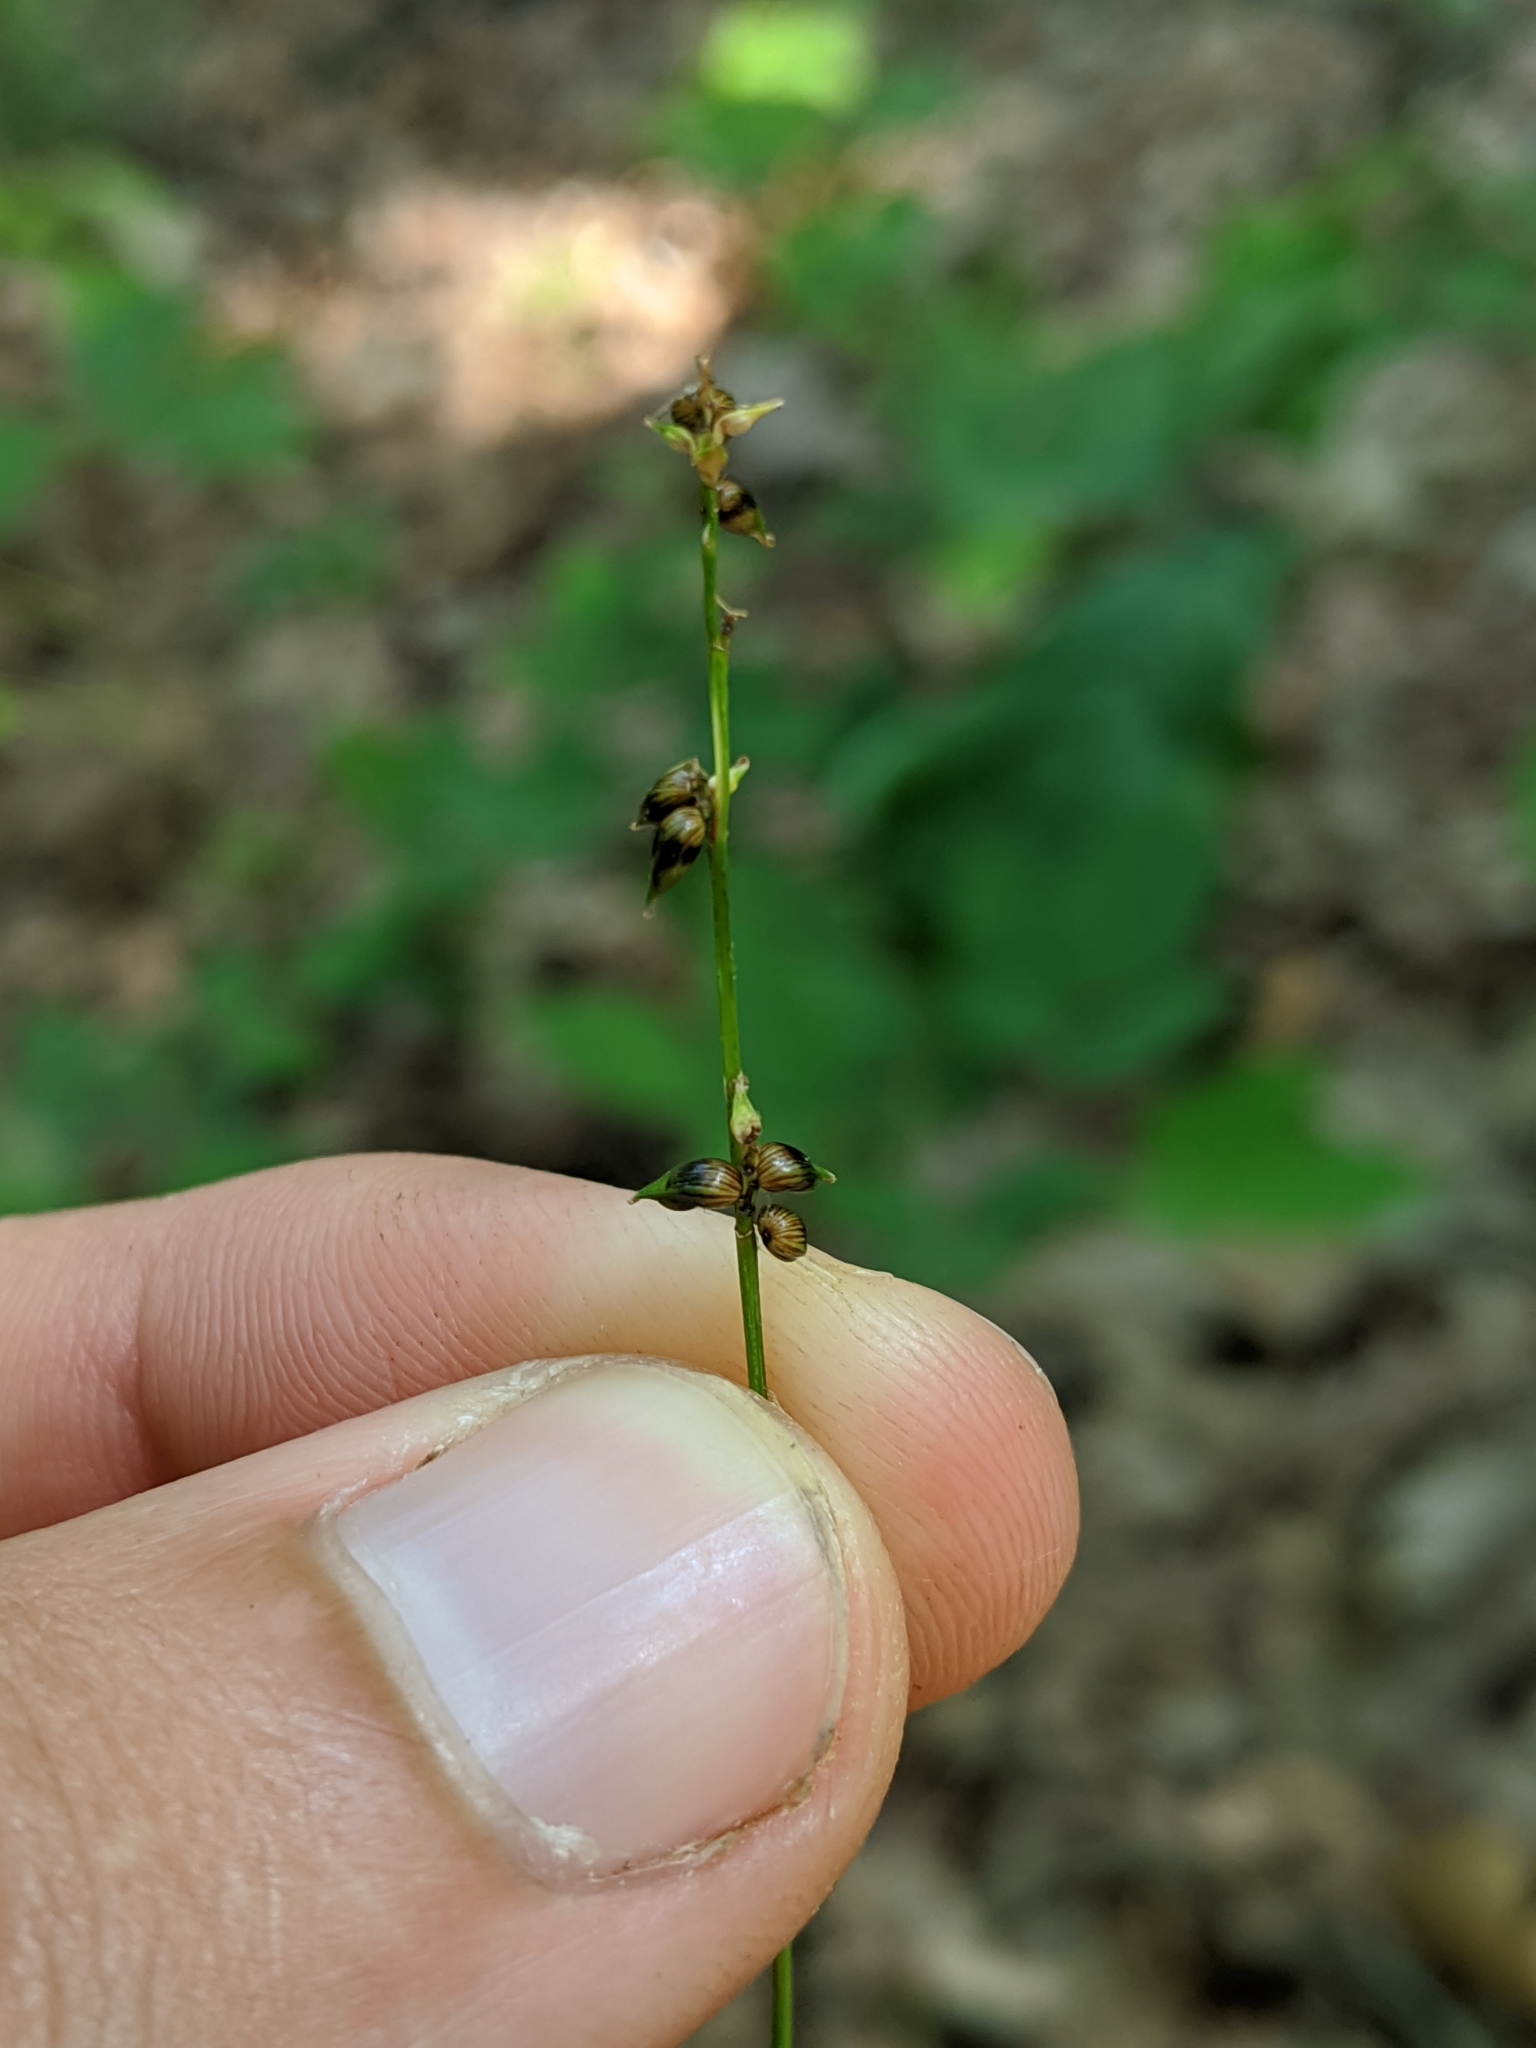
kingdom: Plantae
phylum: Tracheophyta
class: Liliopsida
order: Poales
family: Cyperaceae
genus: Carex
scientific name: Carex retroflexa
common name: Reflexed sedge
